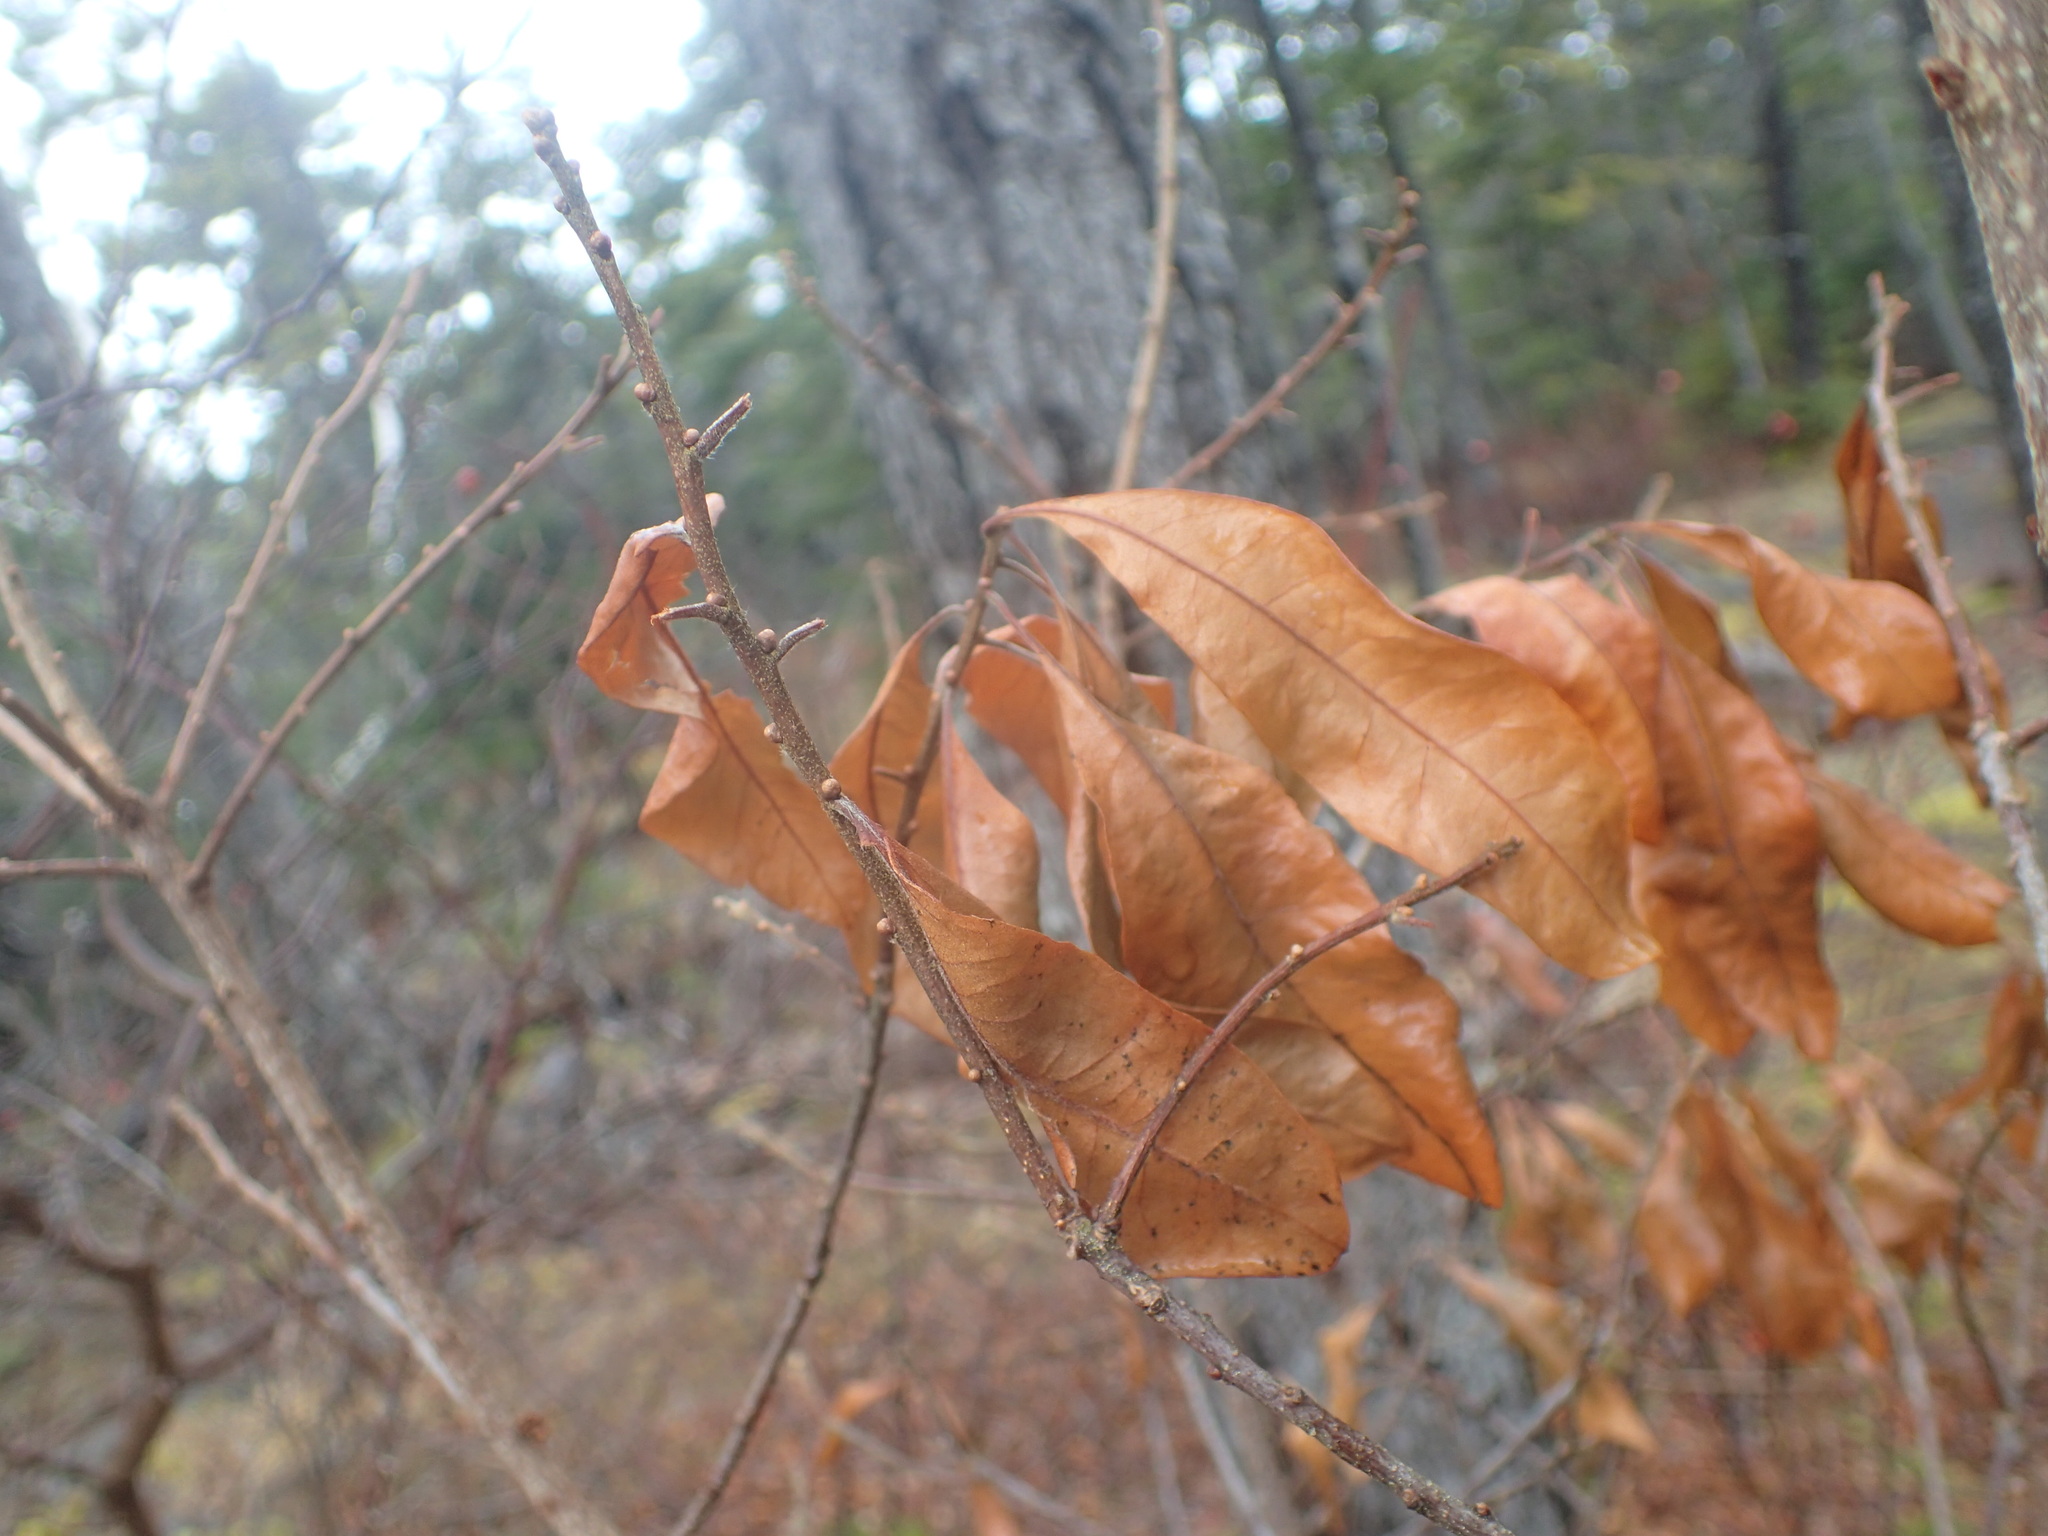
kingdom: Plantae
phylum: Tracheophyta
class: Magnoliopsida
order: Fagales
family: Myricaceae
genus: Morella
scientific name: Morella pensylvanica
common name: Northern bayberry
